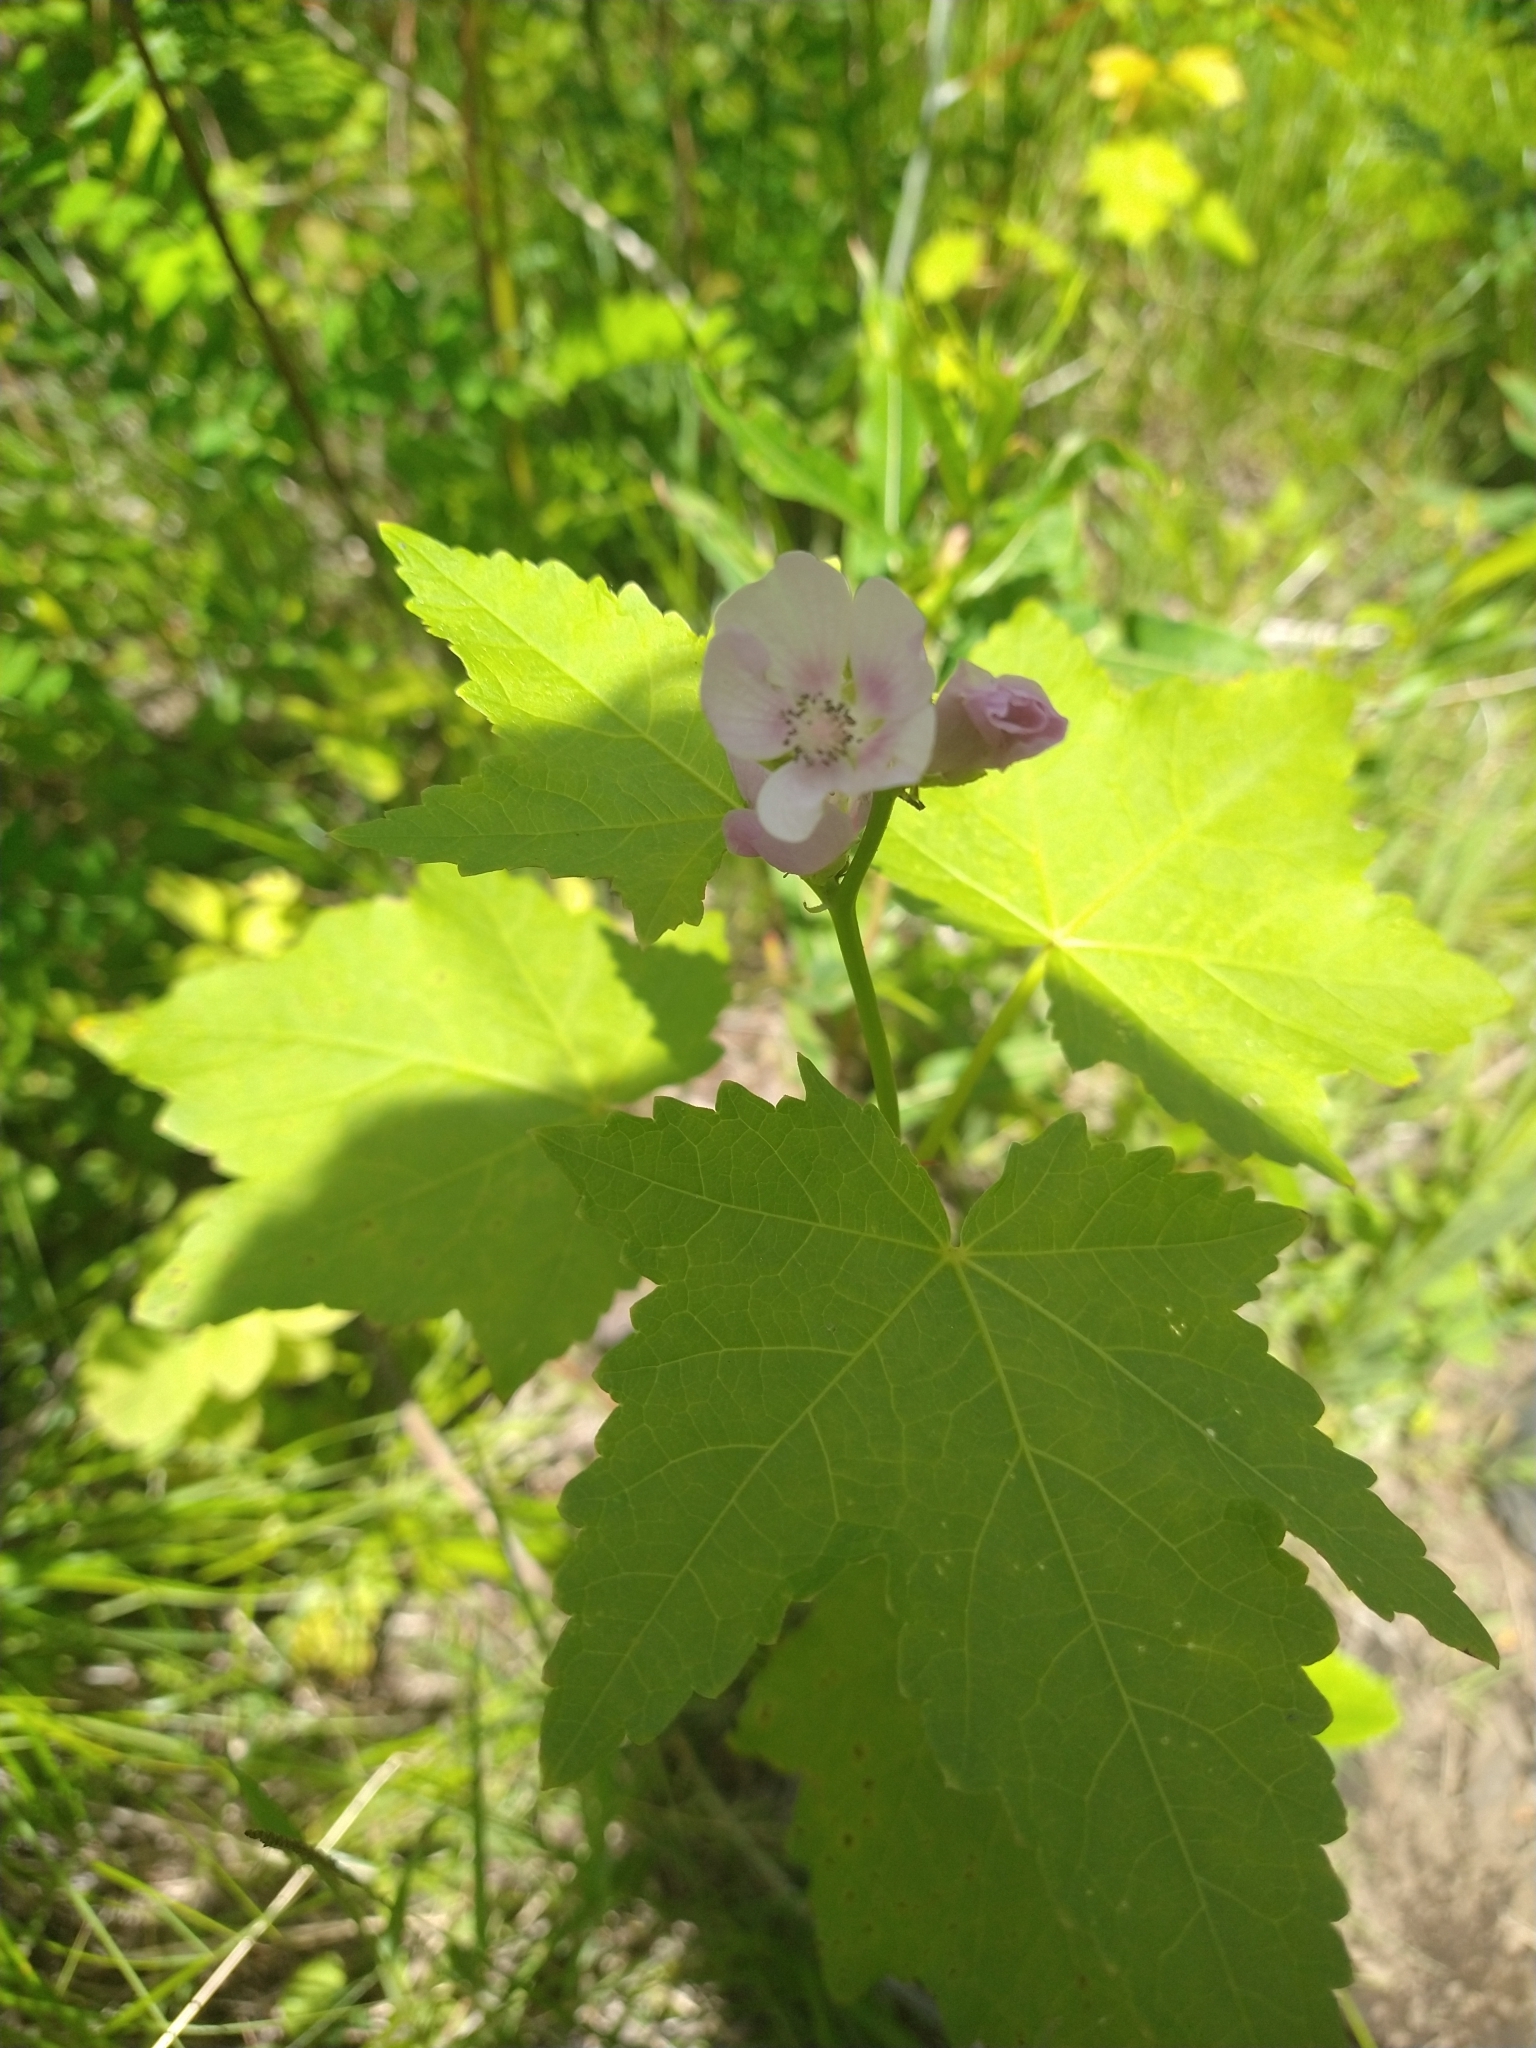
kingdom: Plantae
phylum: Tracheophyta
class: Magnoliopsida
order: Malvales
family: Malvaceae
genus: Iliamna
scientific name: Iliamna rivularis
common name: Wild hollyhock
